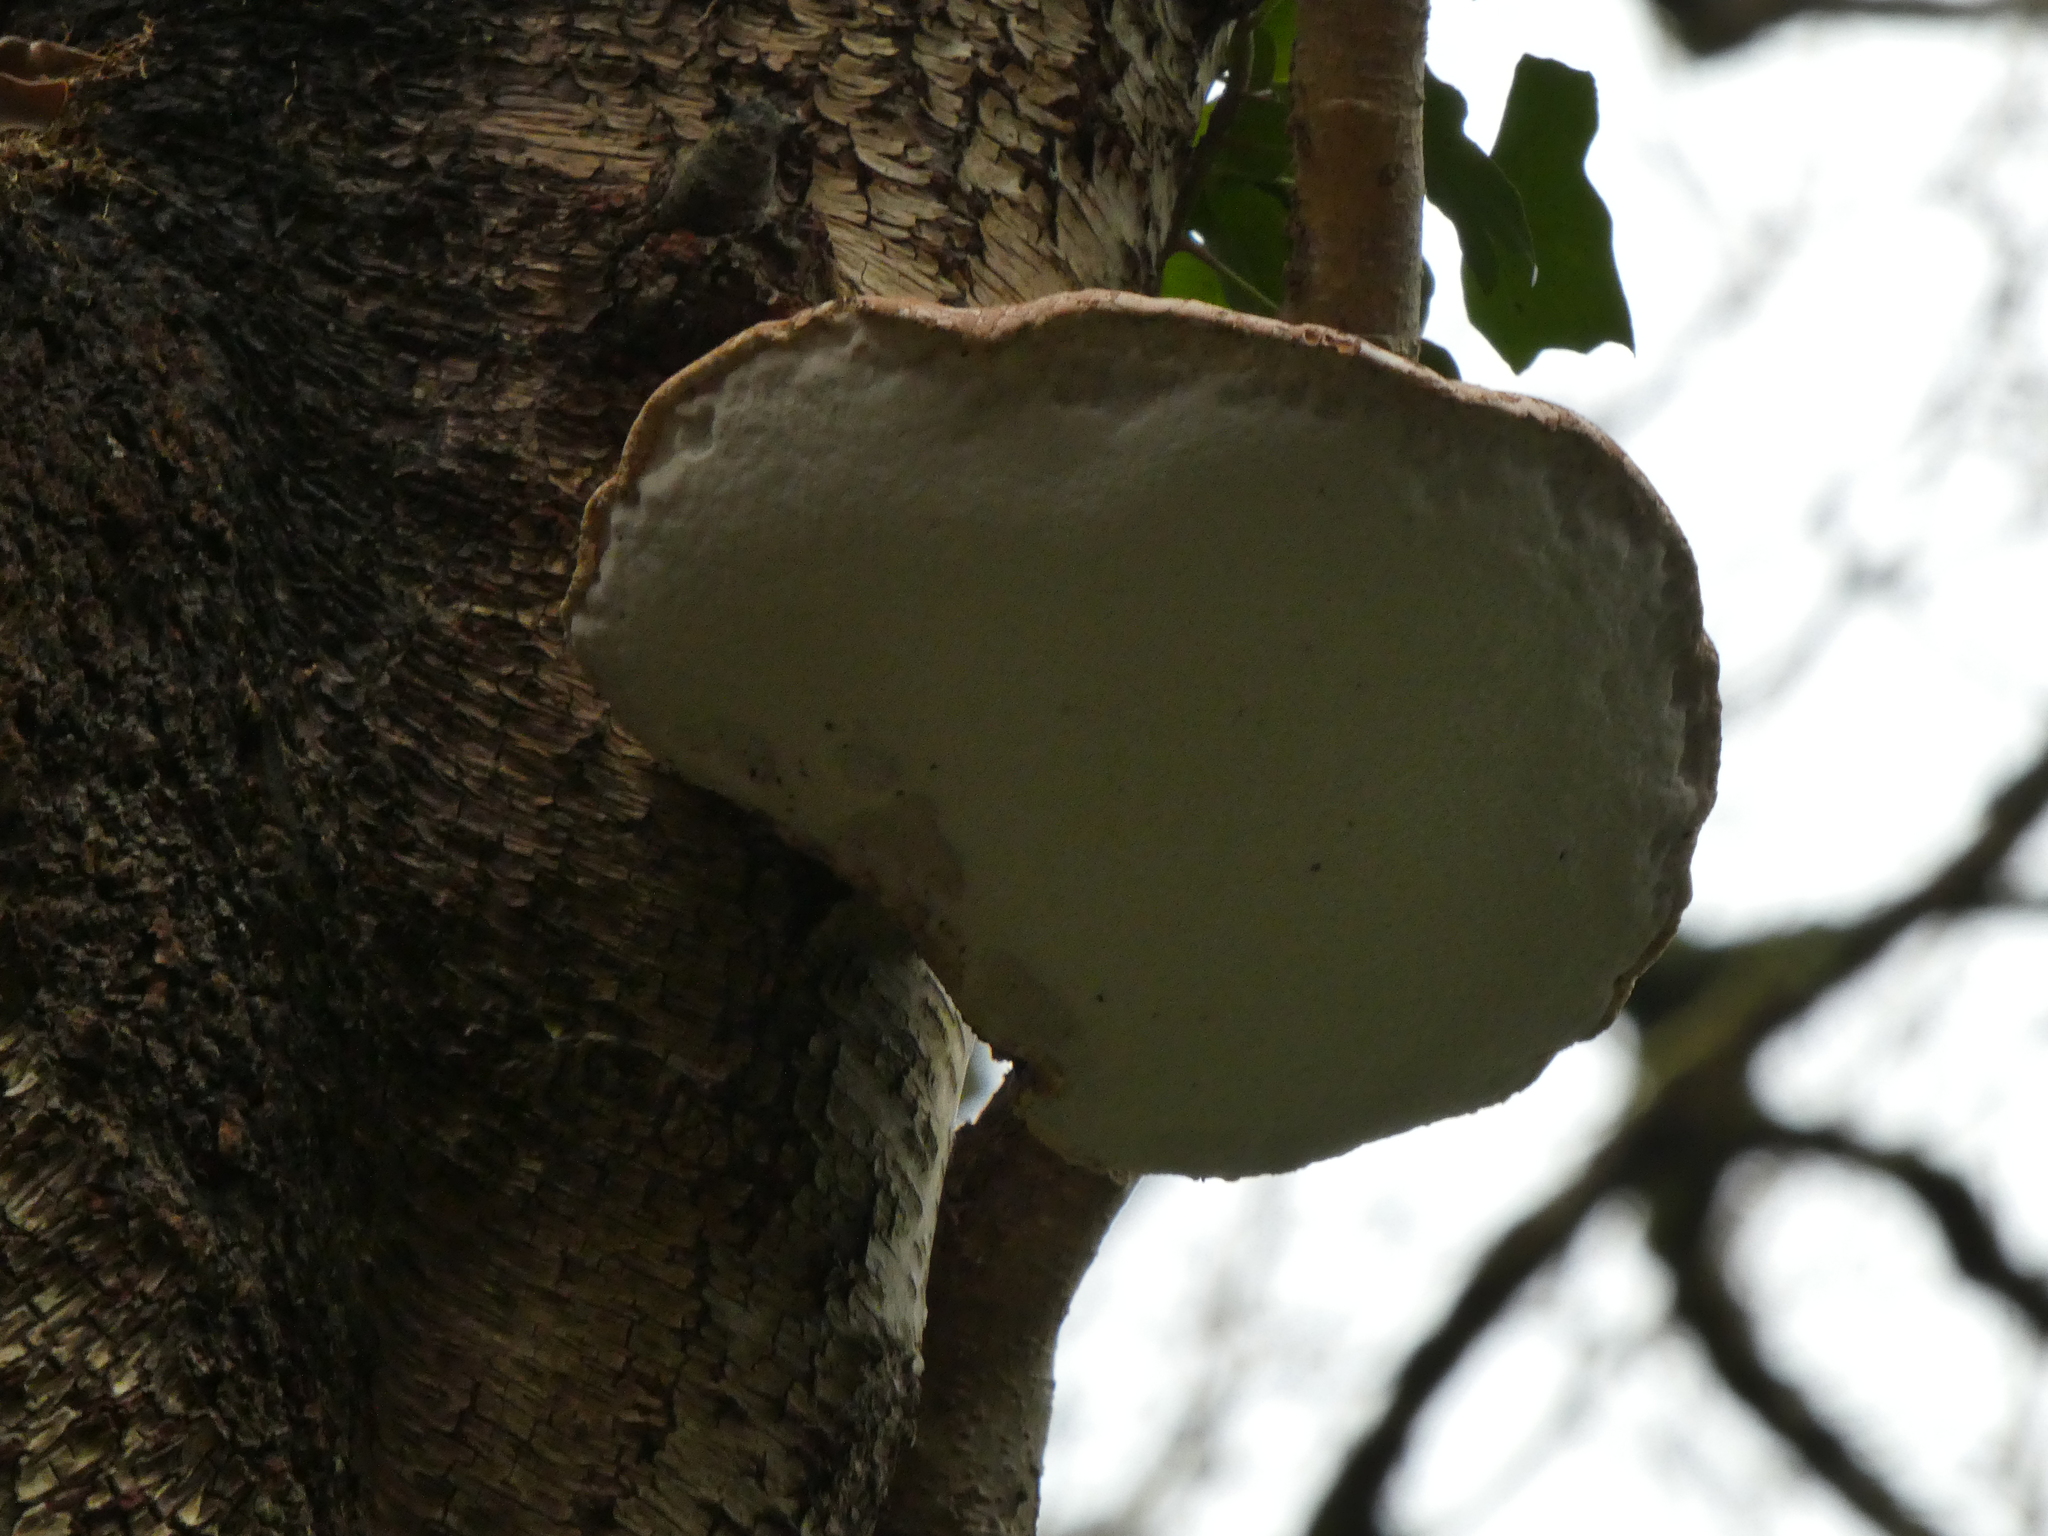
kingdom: Fungi
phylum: Basidiomycota
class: Agaricomycetes
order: Polyporales
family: Fomitopsidaceae
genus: Fomitopsis
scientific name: Fomitopsis betulina
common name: Birch polypore
